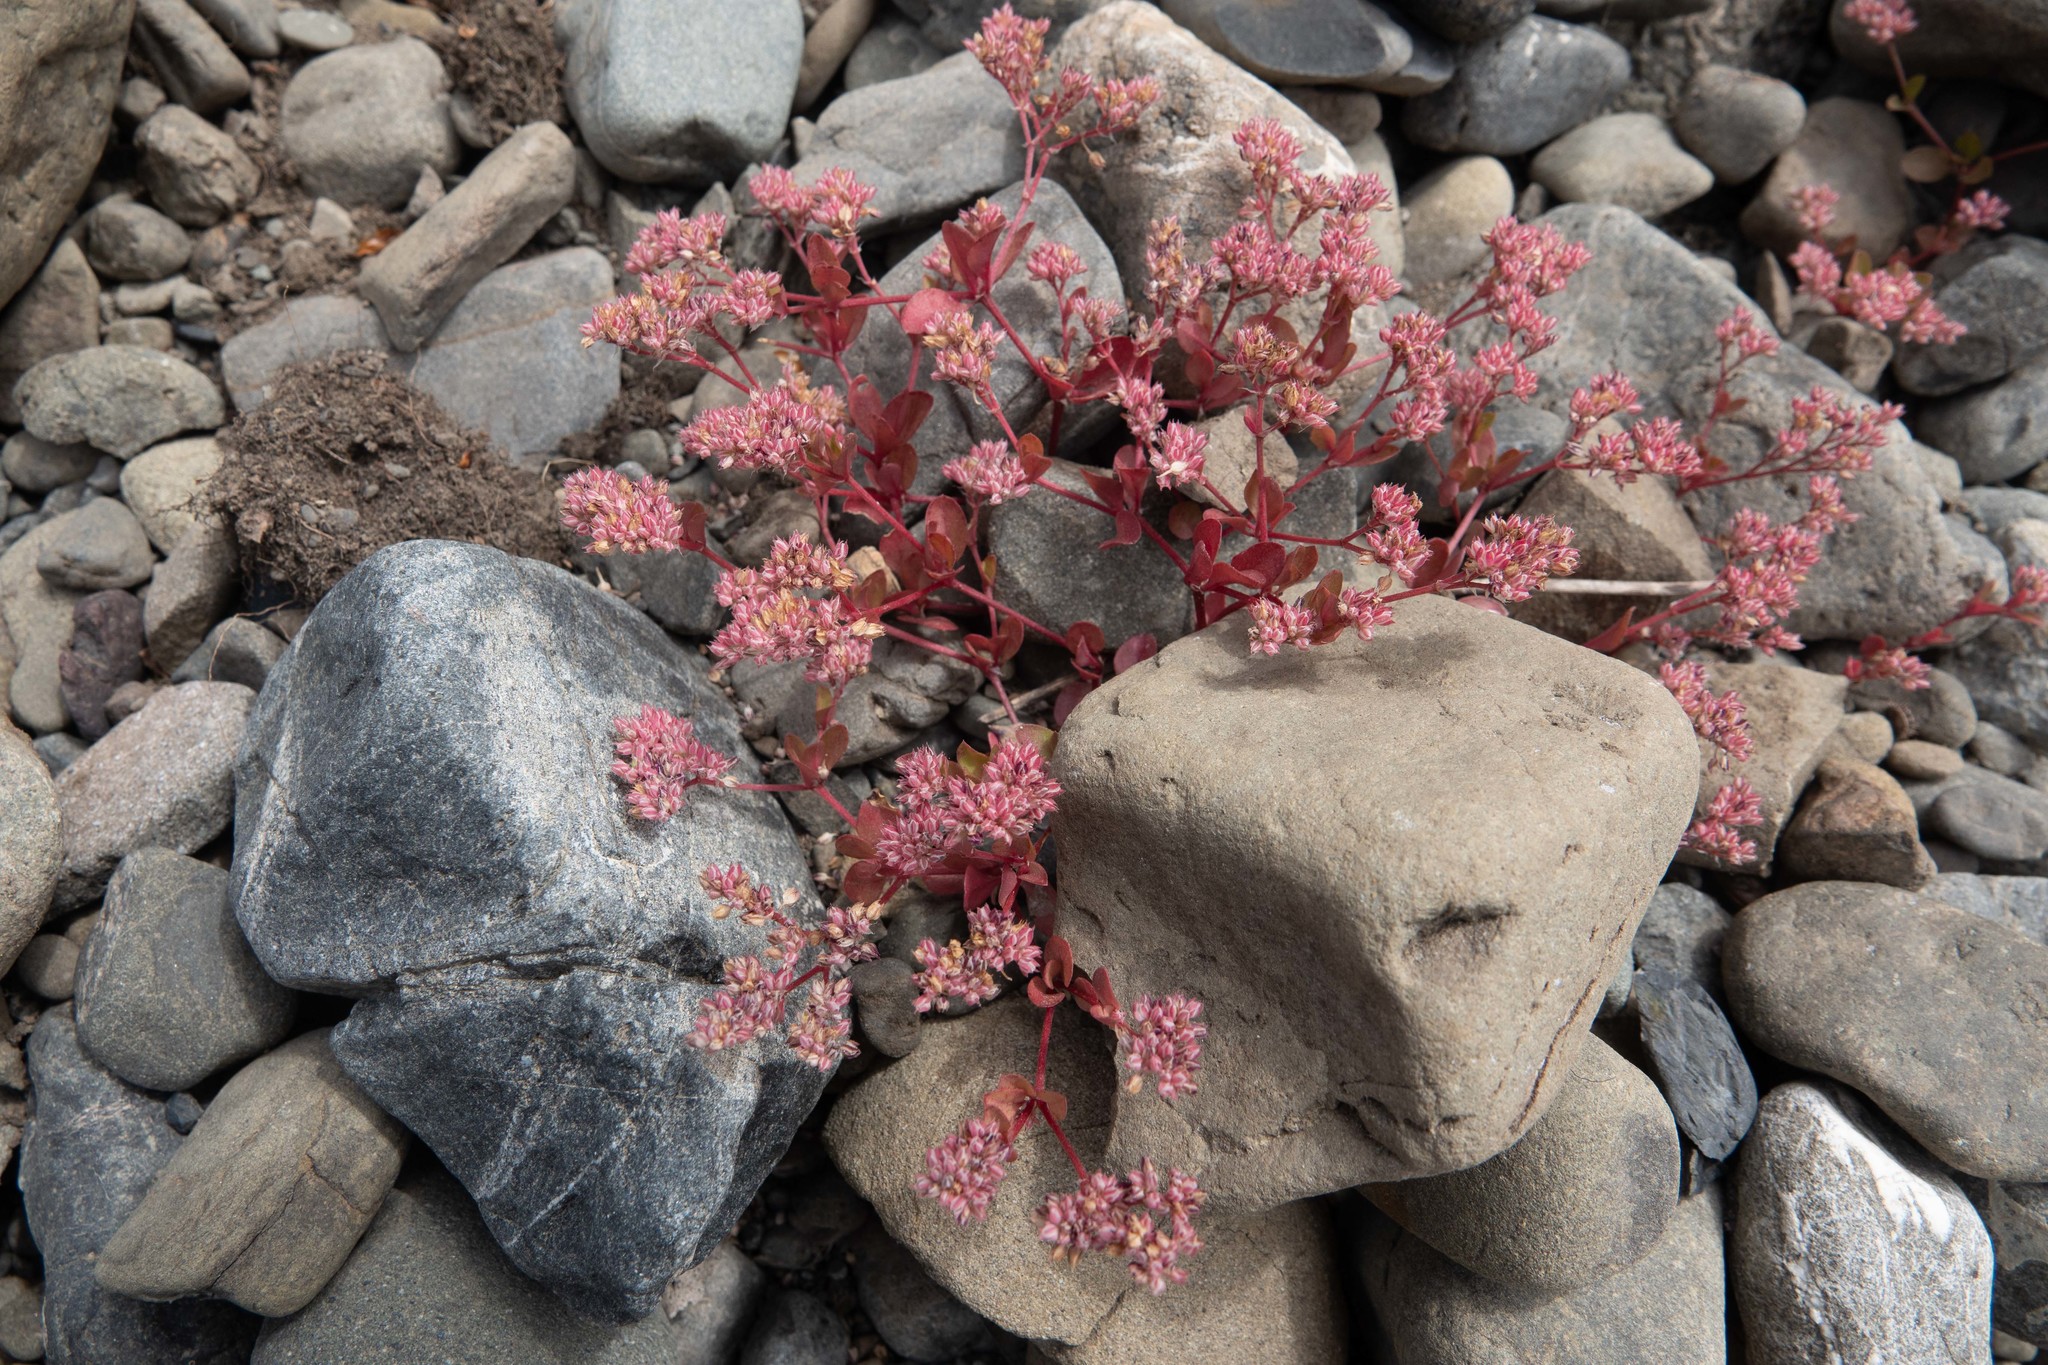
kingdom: Plantae
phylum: Tracheophyta
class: Magnoliopsida
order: Caryophyllales
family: Caryophyllaceae
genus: Polycarpon
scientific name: Polycarpon tetraphyllum
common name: Four-leaved all-seed
